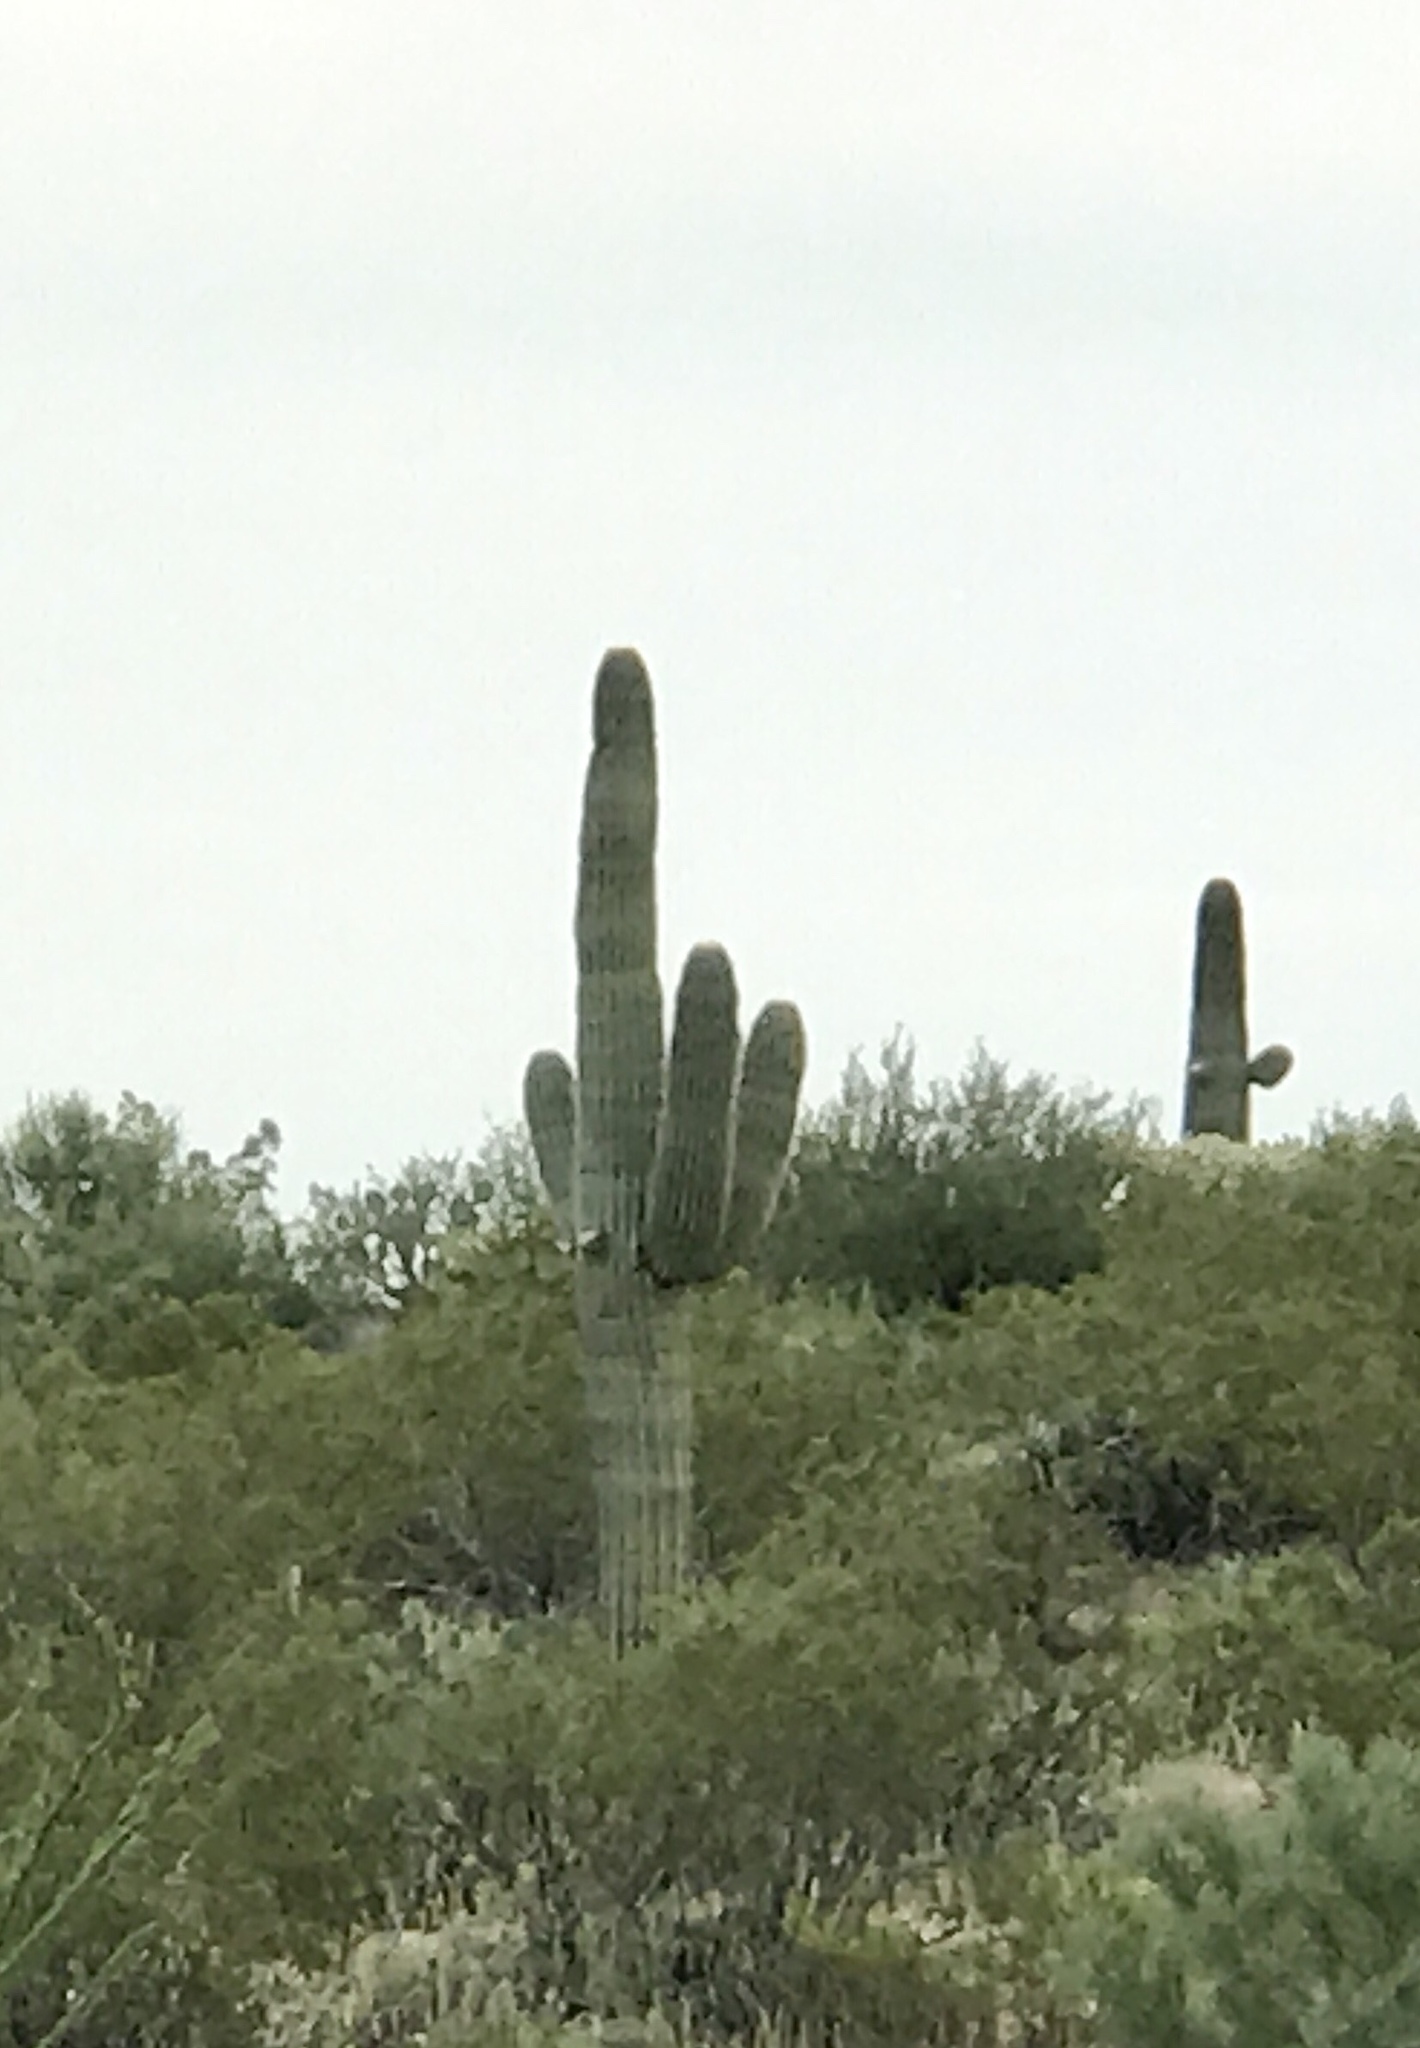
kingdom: Plantae
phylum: Tracheophyta
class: Magnoliopsida
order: Caryophyllales
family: Cactaceae
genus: Carnegiea
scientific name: Carnegiea gigantea
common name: Saguaro
